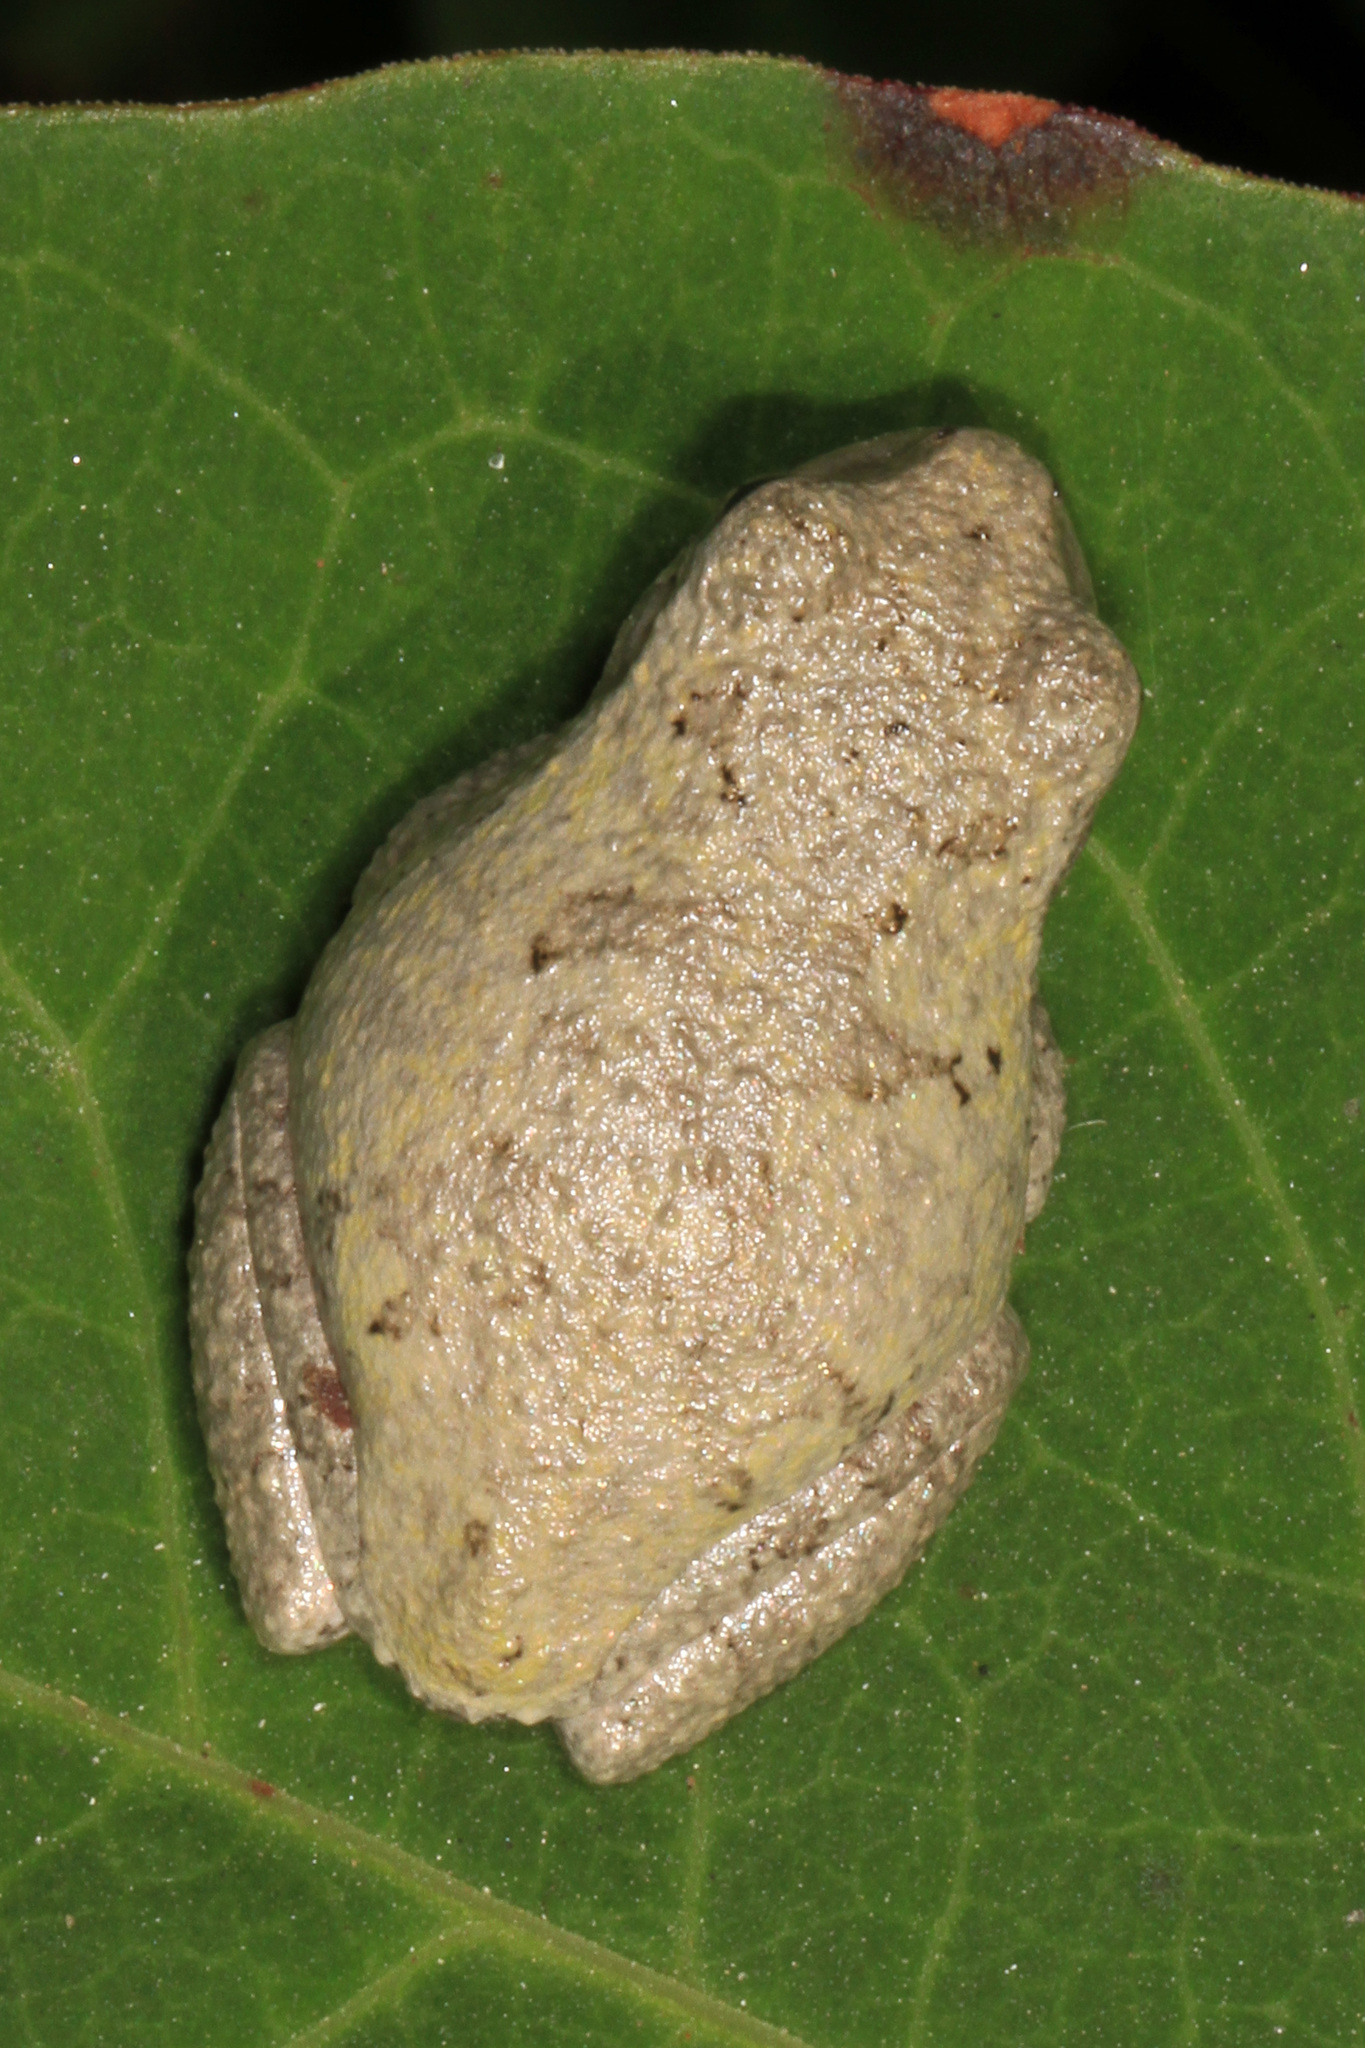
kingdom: Animalia
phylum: Chordata
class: Amphibia
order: Anura
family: Hylidae
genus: Dryophytes
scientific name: Dryophytes chrysoscelis
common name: Cope's gray treefrog
